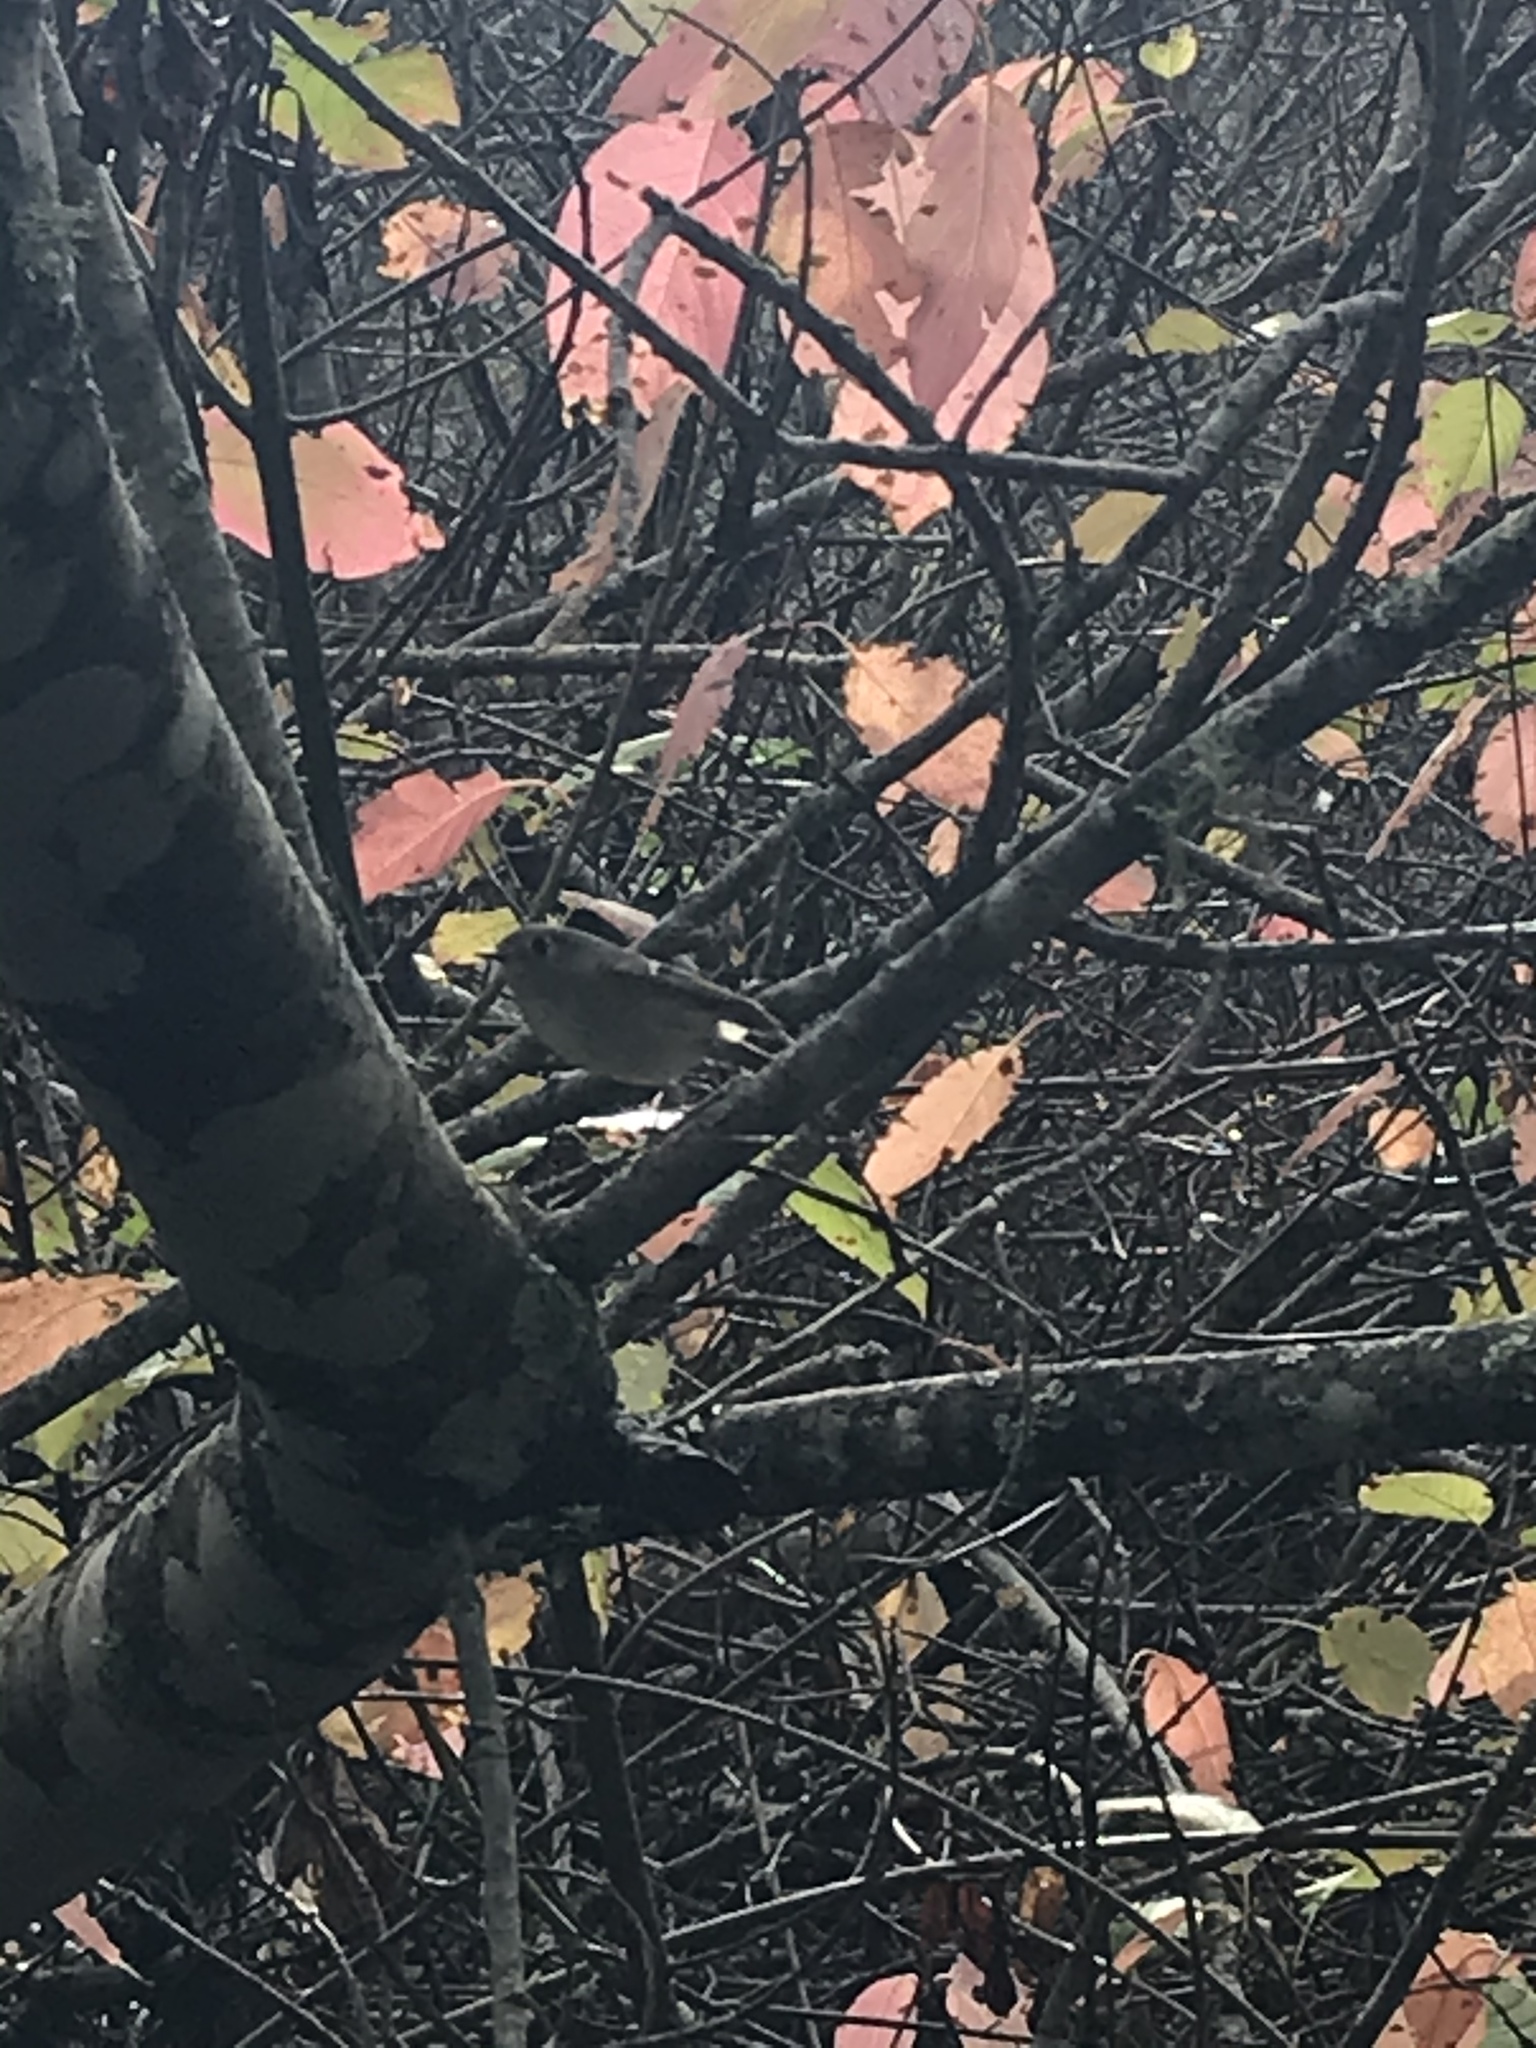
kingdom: Animalia
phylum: Chordata
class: Aves
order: Passeriformes
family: Regulidae
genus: Regulus
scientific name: Regulus calendula
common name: Ruby-crowned kinglet
